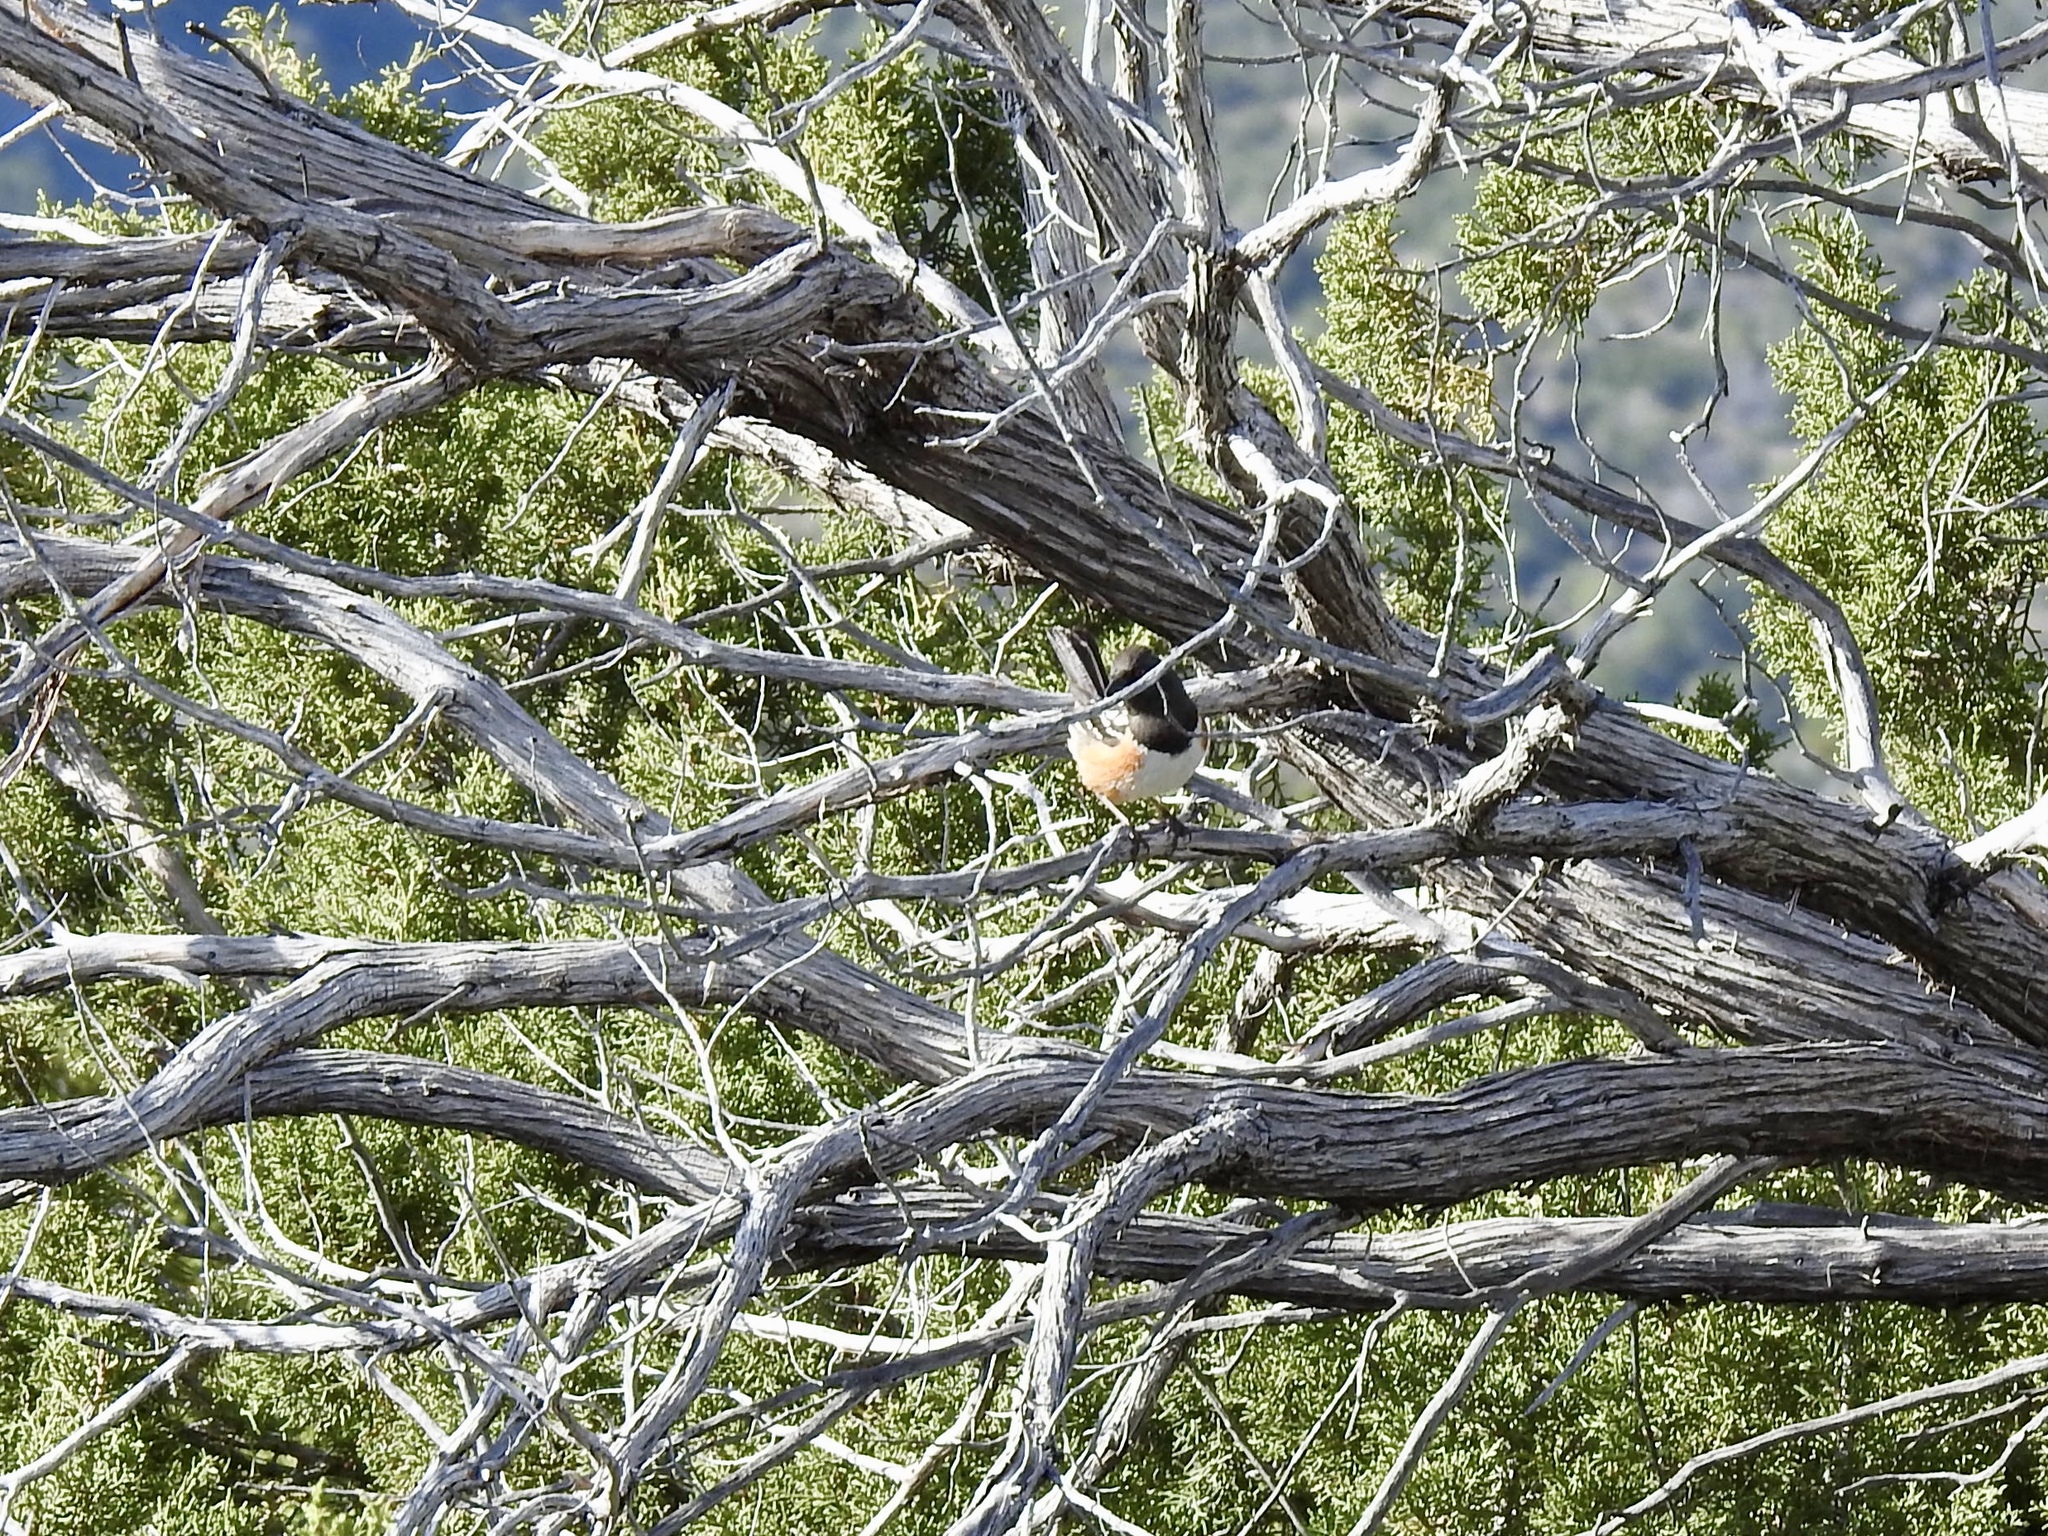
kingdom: Animalia
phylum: Chordata
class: Aves
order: Passeriformes
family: Passerellidae
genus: Pipilo
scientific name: Pipilo maculatus
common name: Spotted towhee
